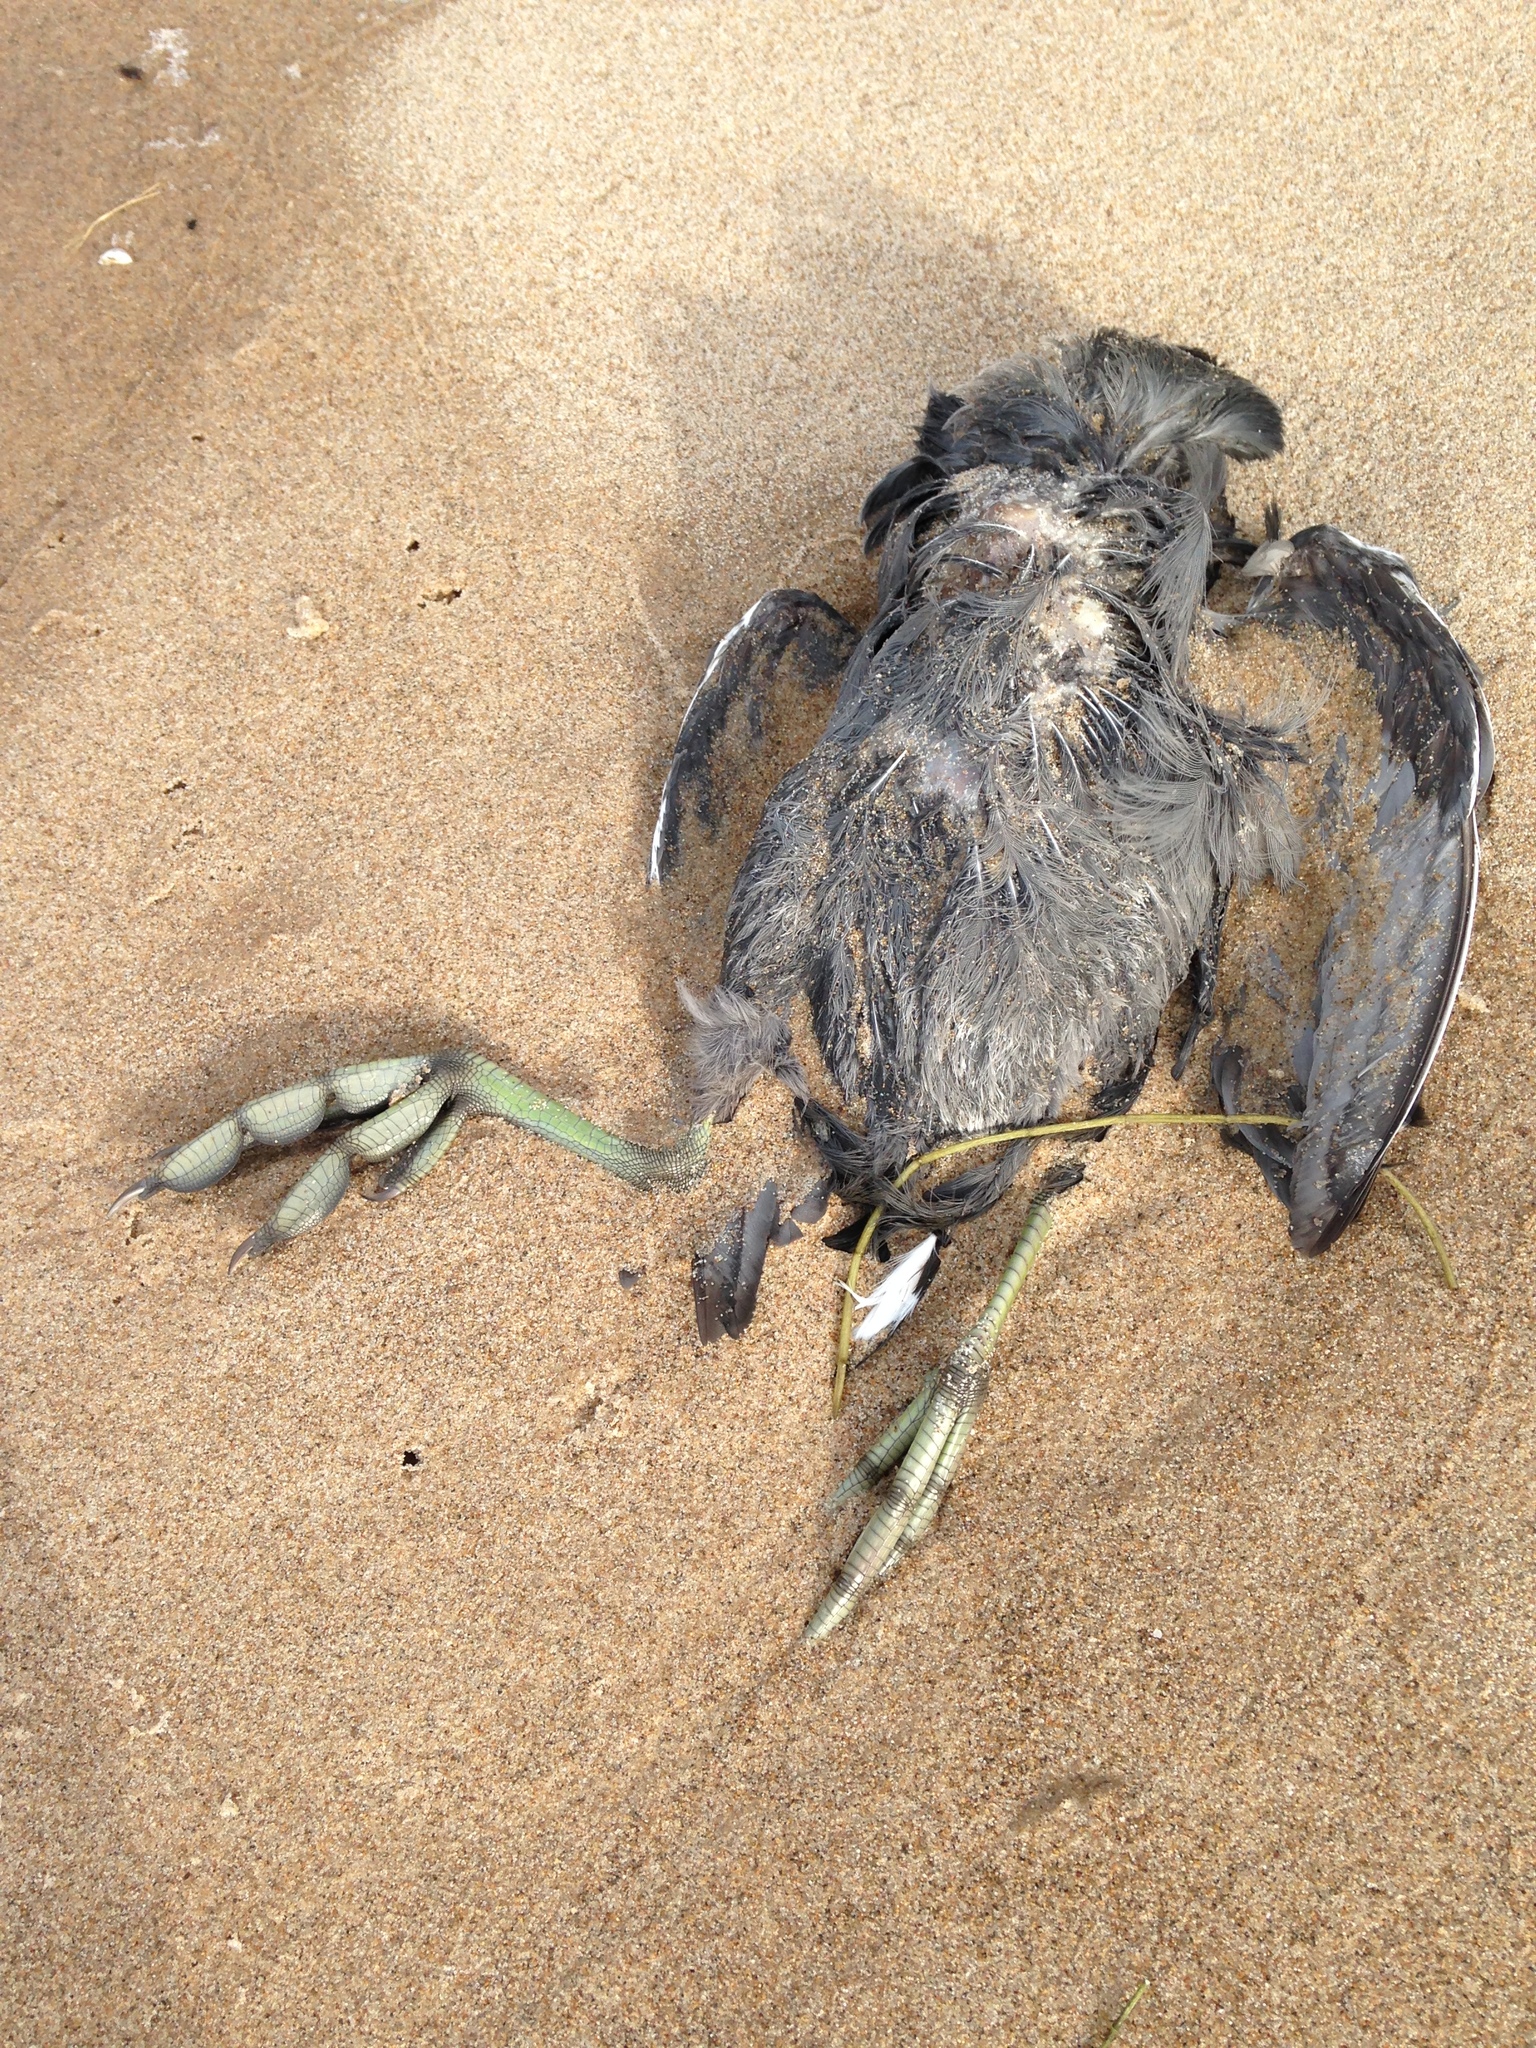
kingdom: Animalia
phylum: Chordata
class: Aves
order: Gruiformes
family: Rallidae
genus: Fulica
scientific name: Fulica americana
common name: American coot
